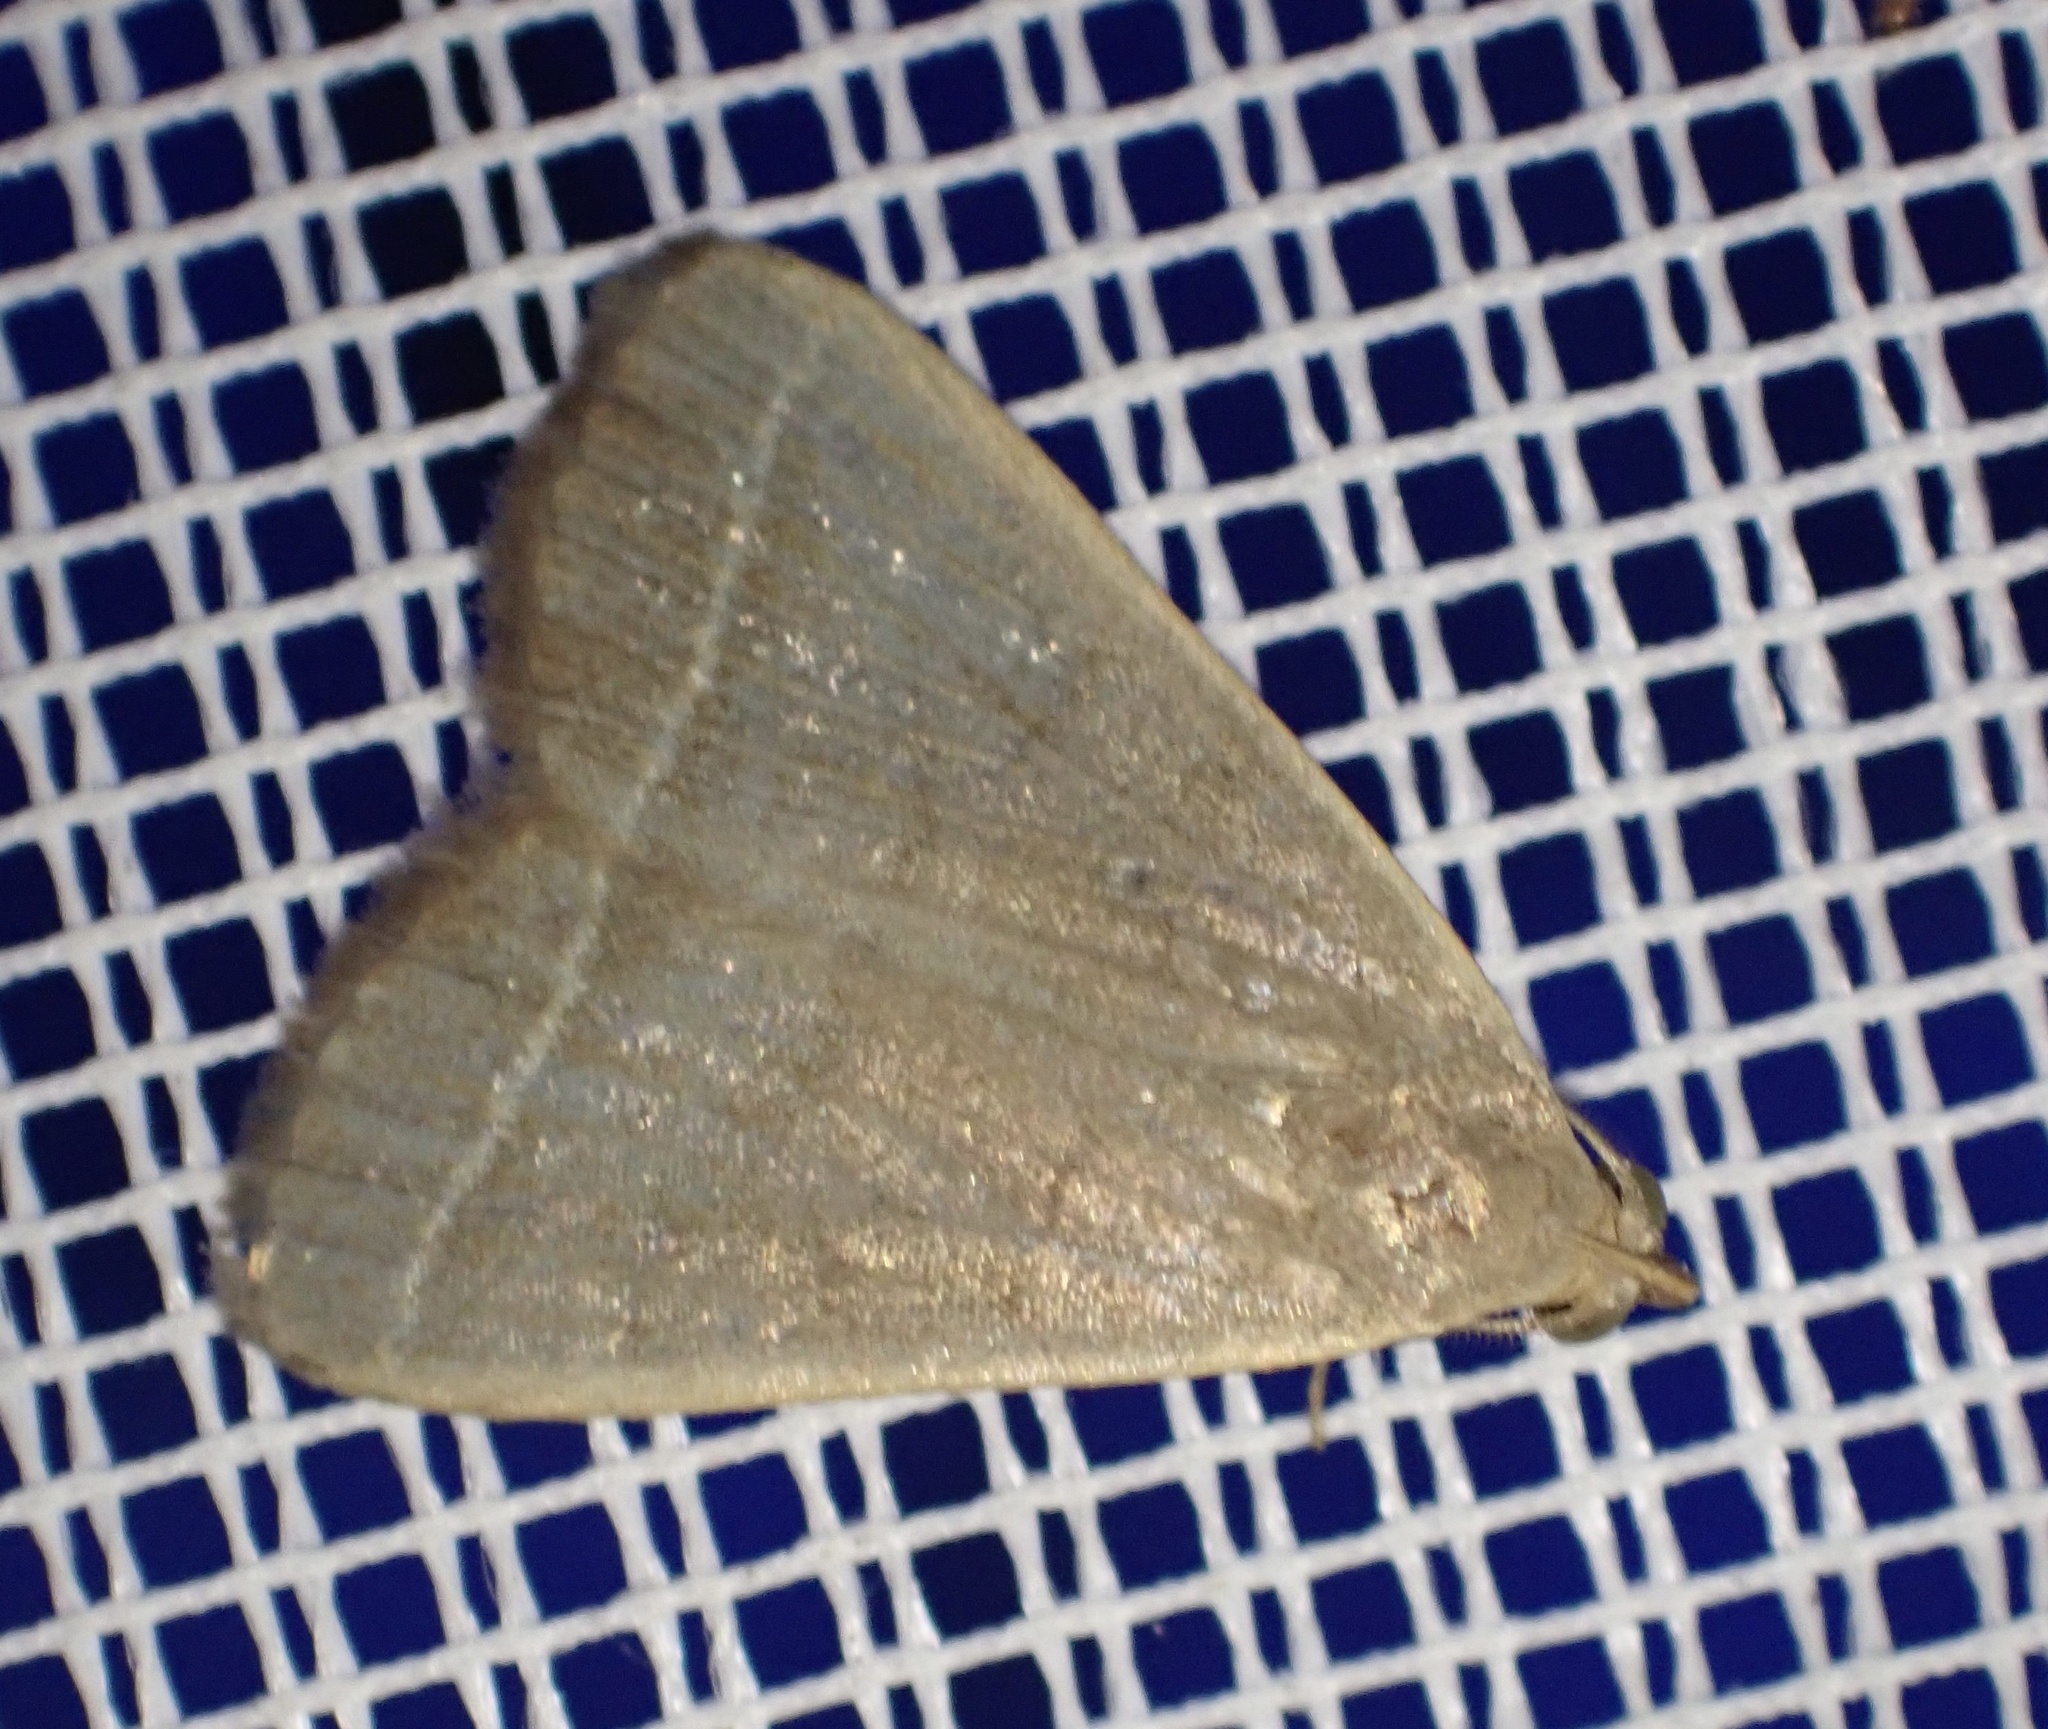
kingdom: Animalia
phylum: Arthropoda
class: Insecta
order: Lepidoptera
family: Erebidae
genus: Simplicia
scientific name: Simplicia extinctalis
